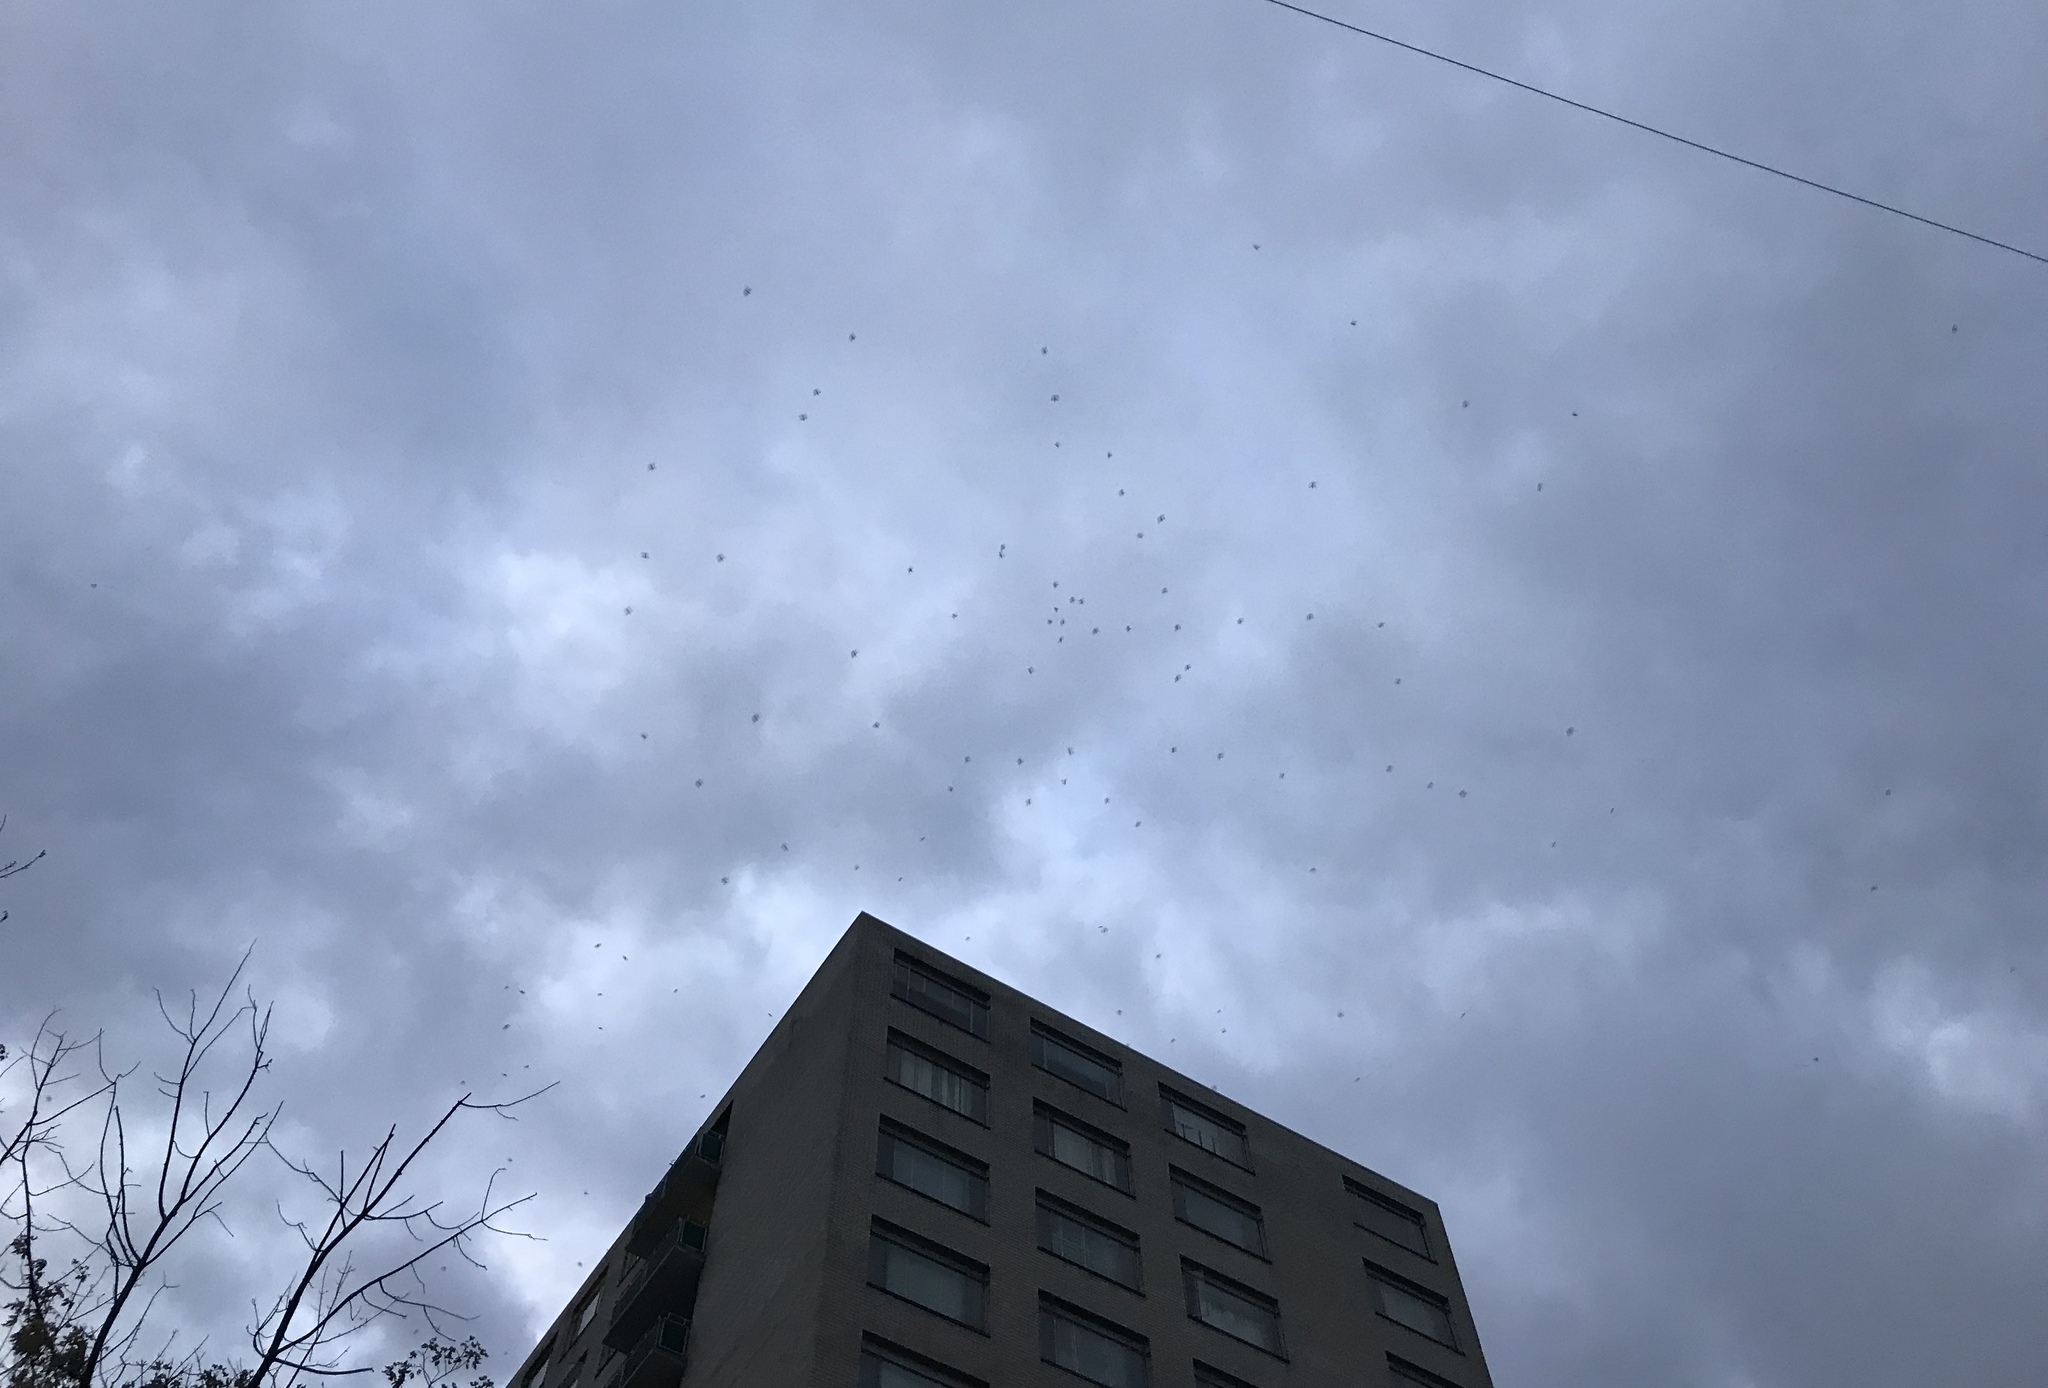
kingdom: Animalia
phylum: Chordata
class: Aves
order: Apodiformes
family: Apodidae
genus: Chaetura
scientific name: Chaetura pelagica
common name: Chimney swift
